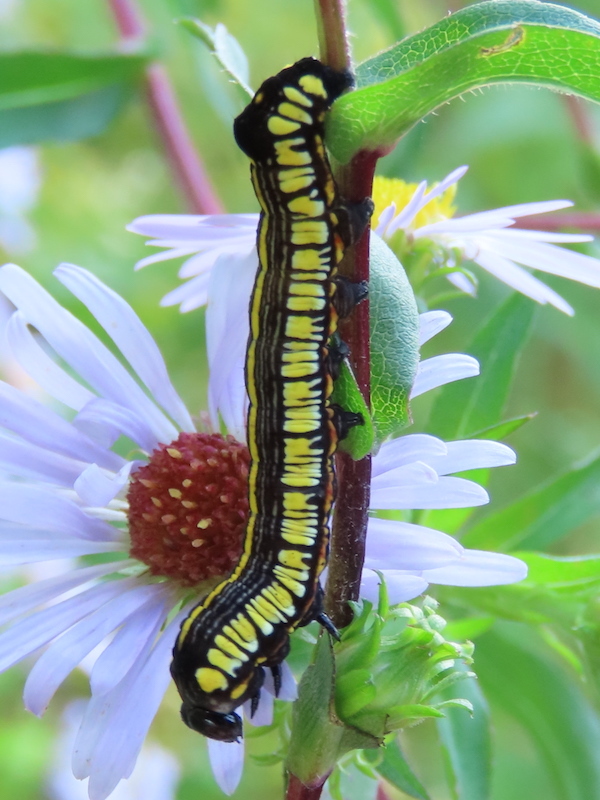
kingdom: Animalia
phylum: Arthropoda
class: Insecta
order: Lepidoptera
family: Noctuidae
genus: Cucullia
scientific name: Cucullia convexipennis
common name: Brown-hooded owlet
